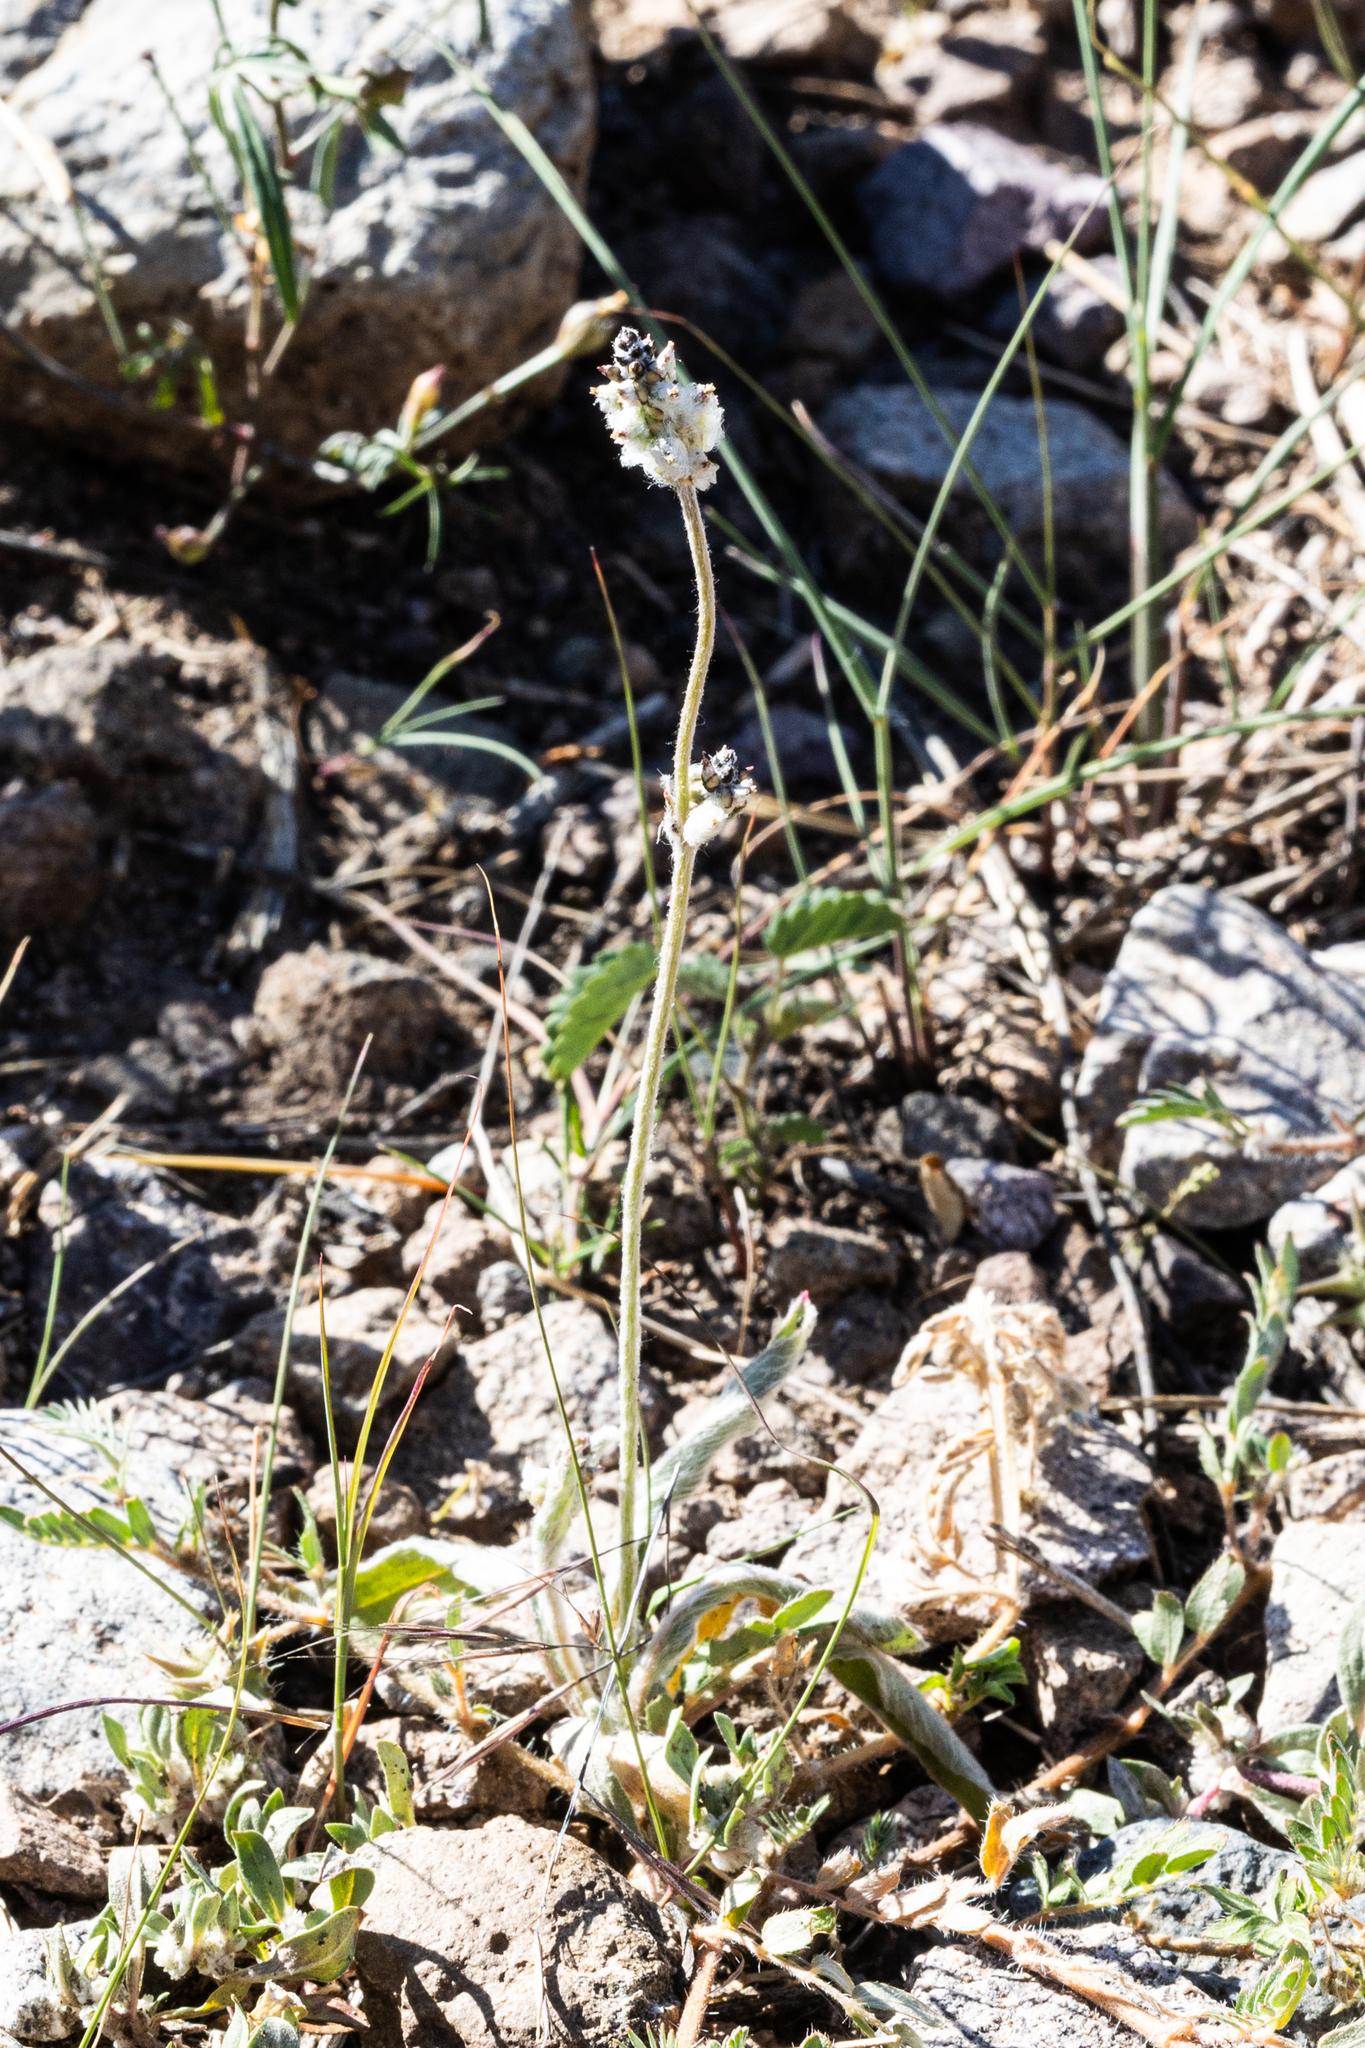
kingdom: Plantae
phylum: Tracheophyta
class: Magnoliopsida
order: Caryophyllales
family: Amaranthaceae
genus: Froelichia
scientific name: Froelichia gracilis
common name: Slender cottonweed
